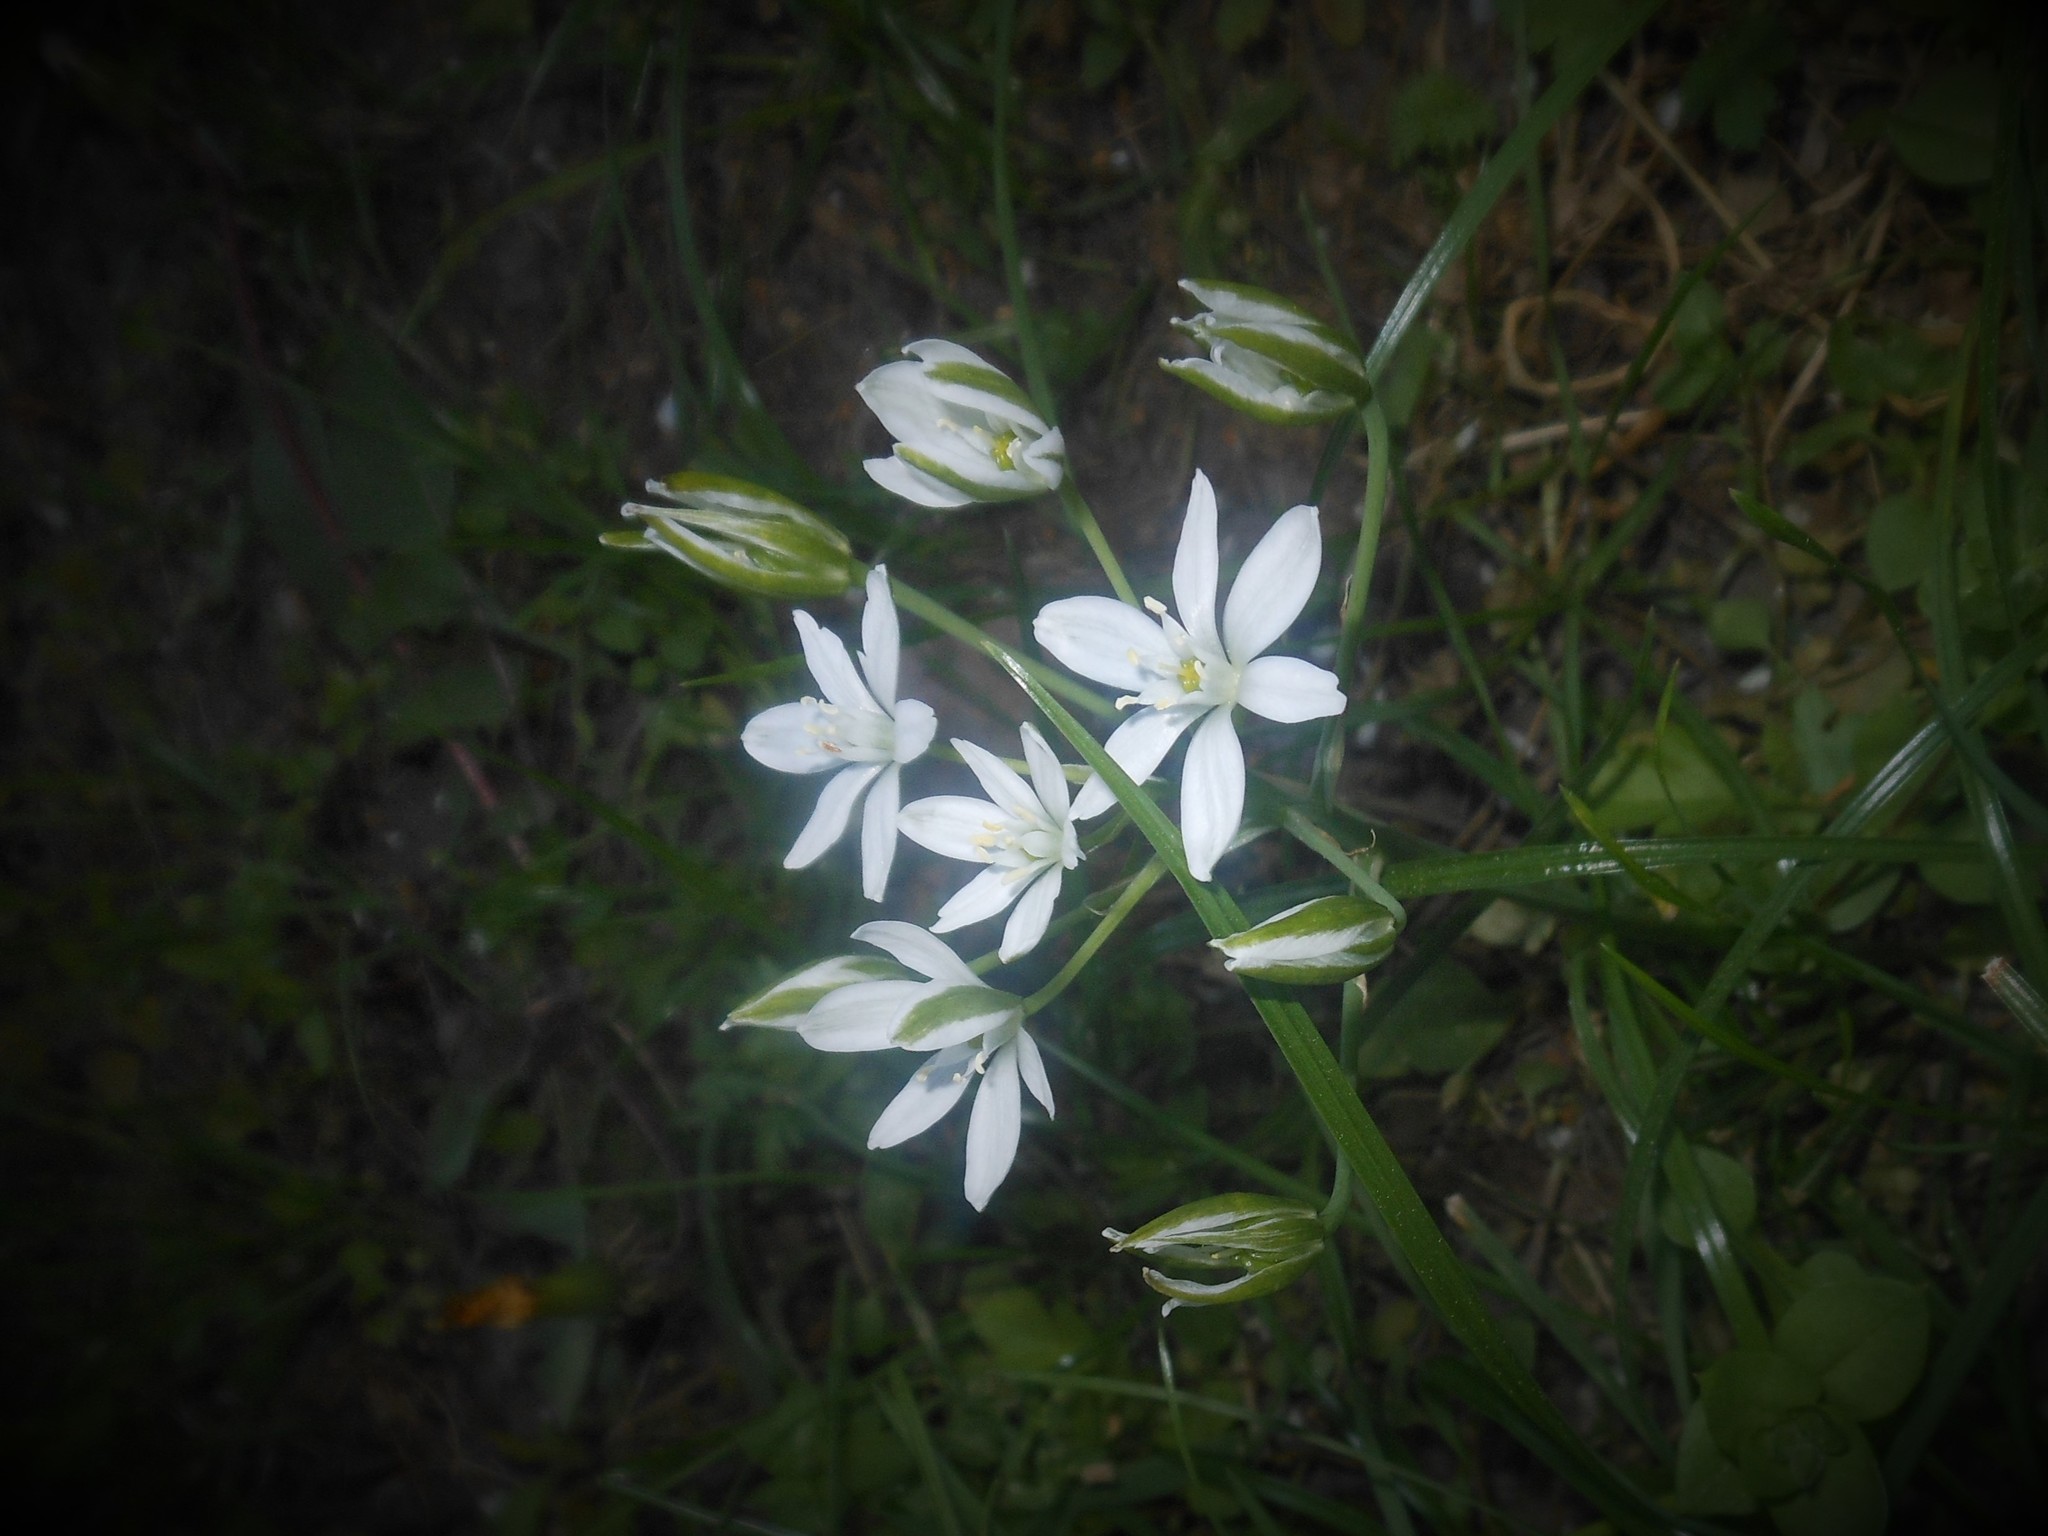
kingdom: Plantae
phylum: Tracheophyta
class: Liliopsida
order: Asparagales
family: Asparagaceae
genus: Ornithogalum
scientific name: Ornithogalum umbellatum
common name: Garden star-of-bethlehem
